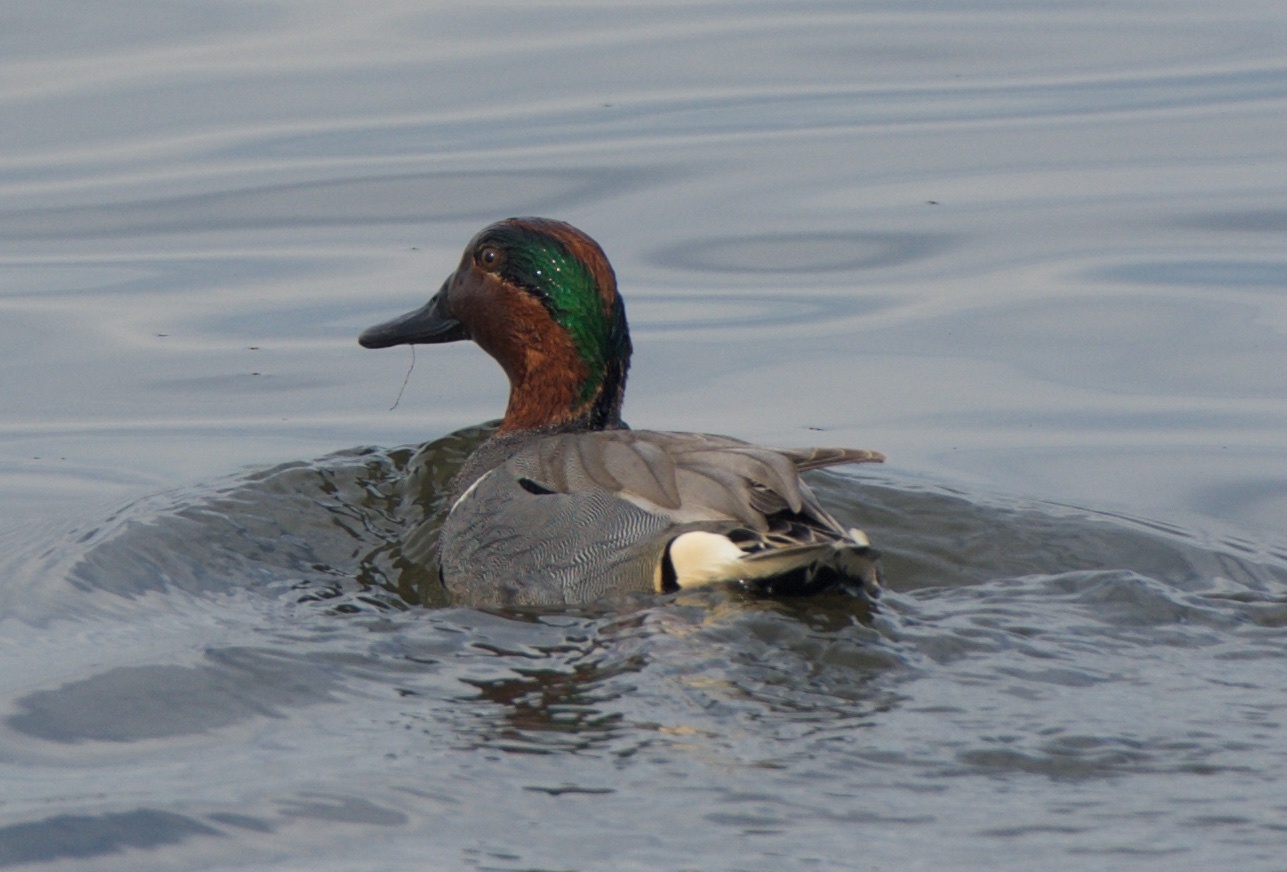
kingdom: Animalia
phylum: Chordata
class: Aves
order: Anseriformes
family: Anatidae
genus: Anas
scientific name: Anas crecca
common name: Eurasian teal
